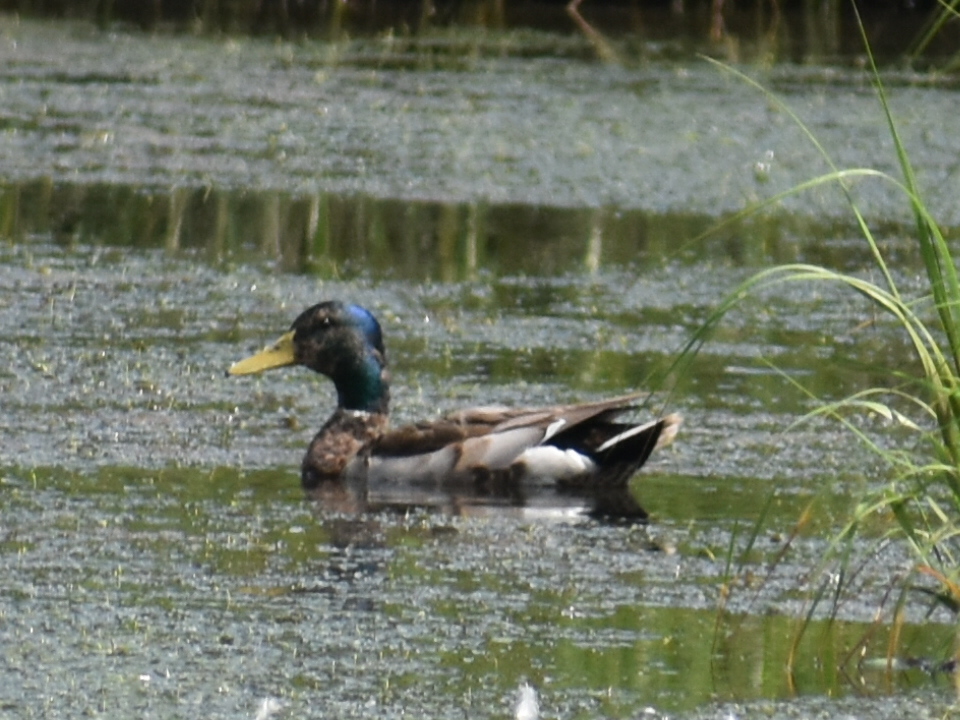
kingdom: Animalia
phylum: Chordata
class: Aves
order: Anseriformes
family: Anatidae
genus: Anas
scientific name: Anas platyrhynchos
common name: Mallard
